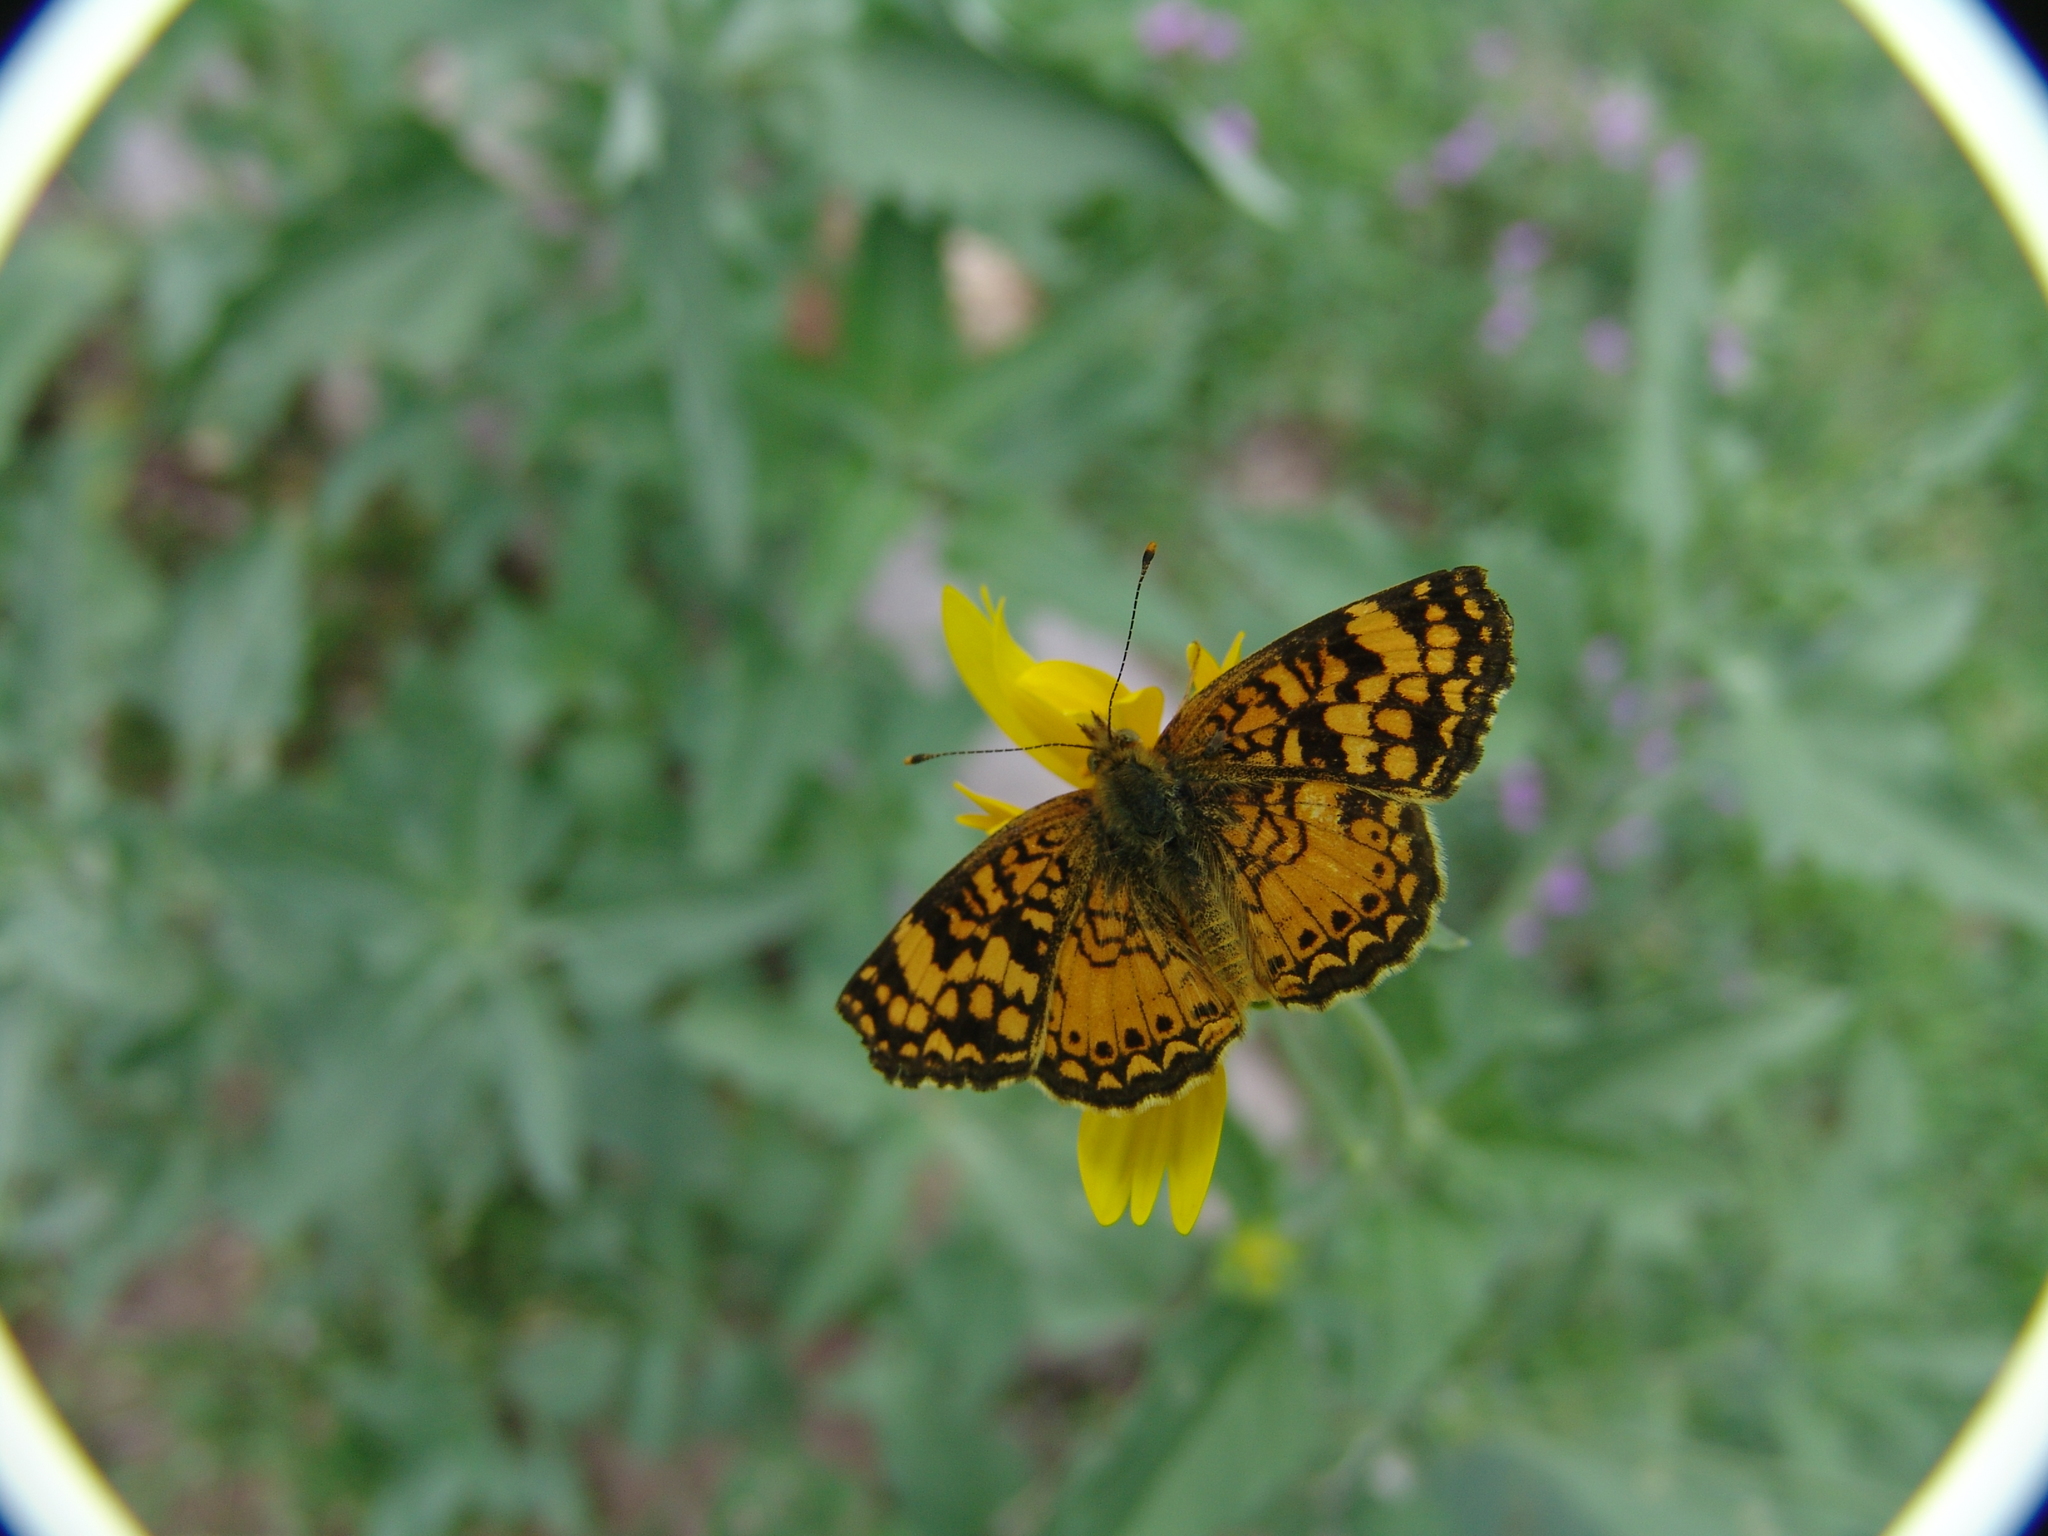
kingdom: Animalia
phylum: Arthropoda
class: Insecta
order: Lepidoptera
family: Nymphalidae
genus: Eresia
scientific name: Eresia aveyrona
